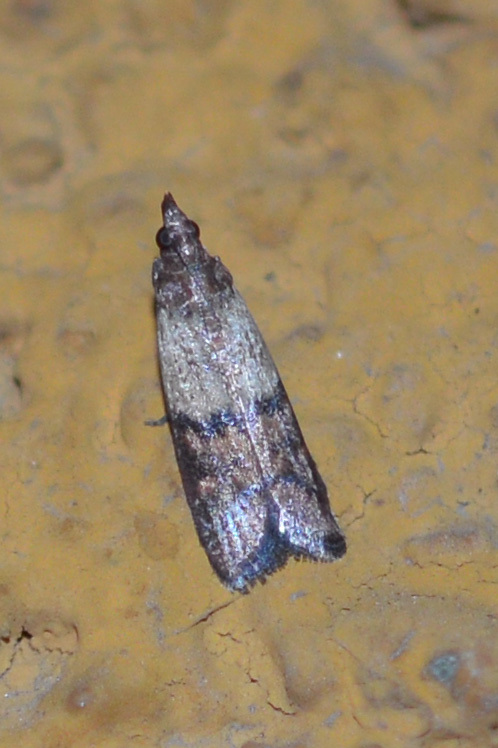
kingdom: Animalia
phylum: Arthropoda
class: Insecta
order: Lepidoptera
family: Pyralidae
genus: Plodia
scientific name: Plodia interpunctella
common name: Indian meal moth
